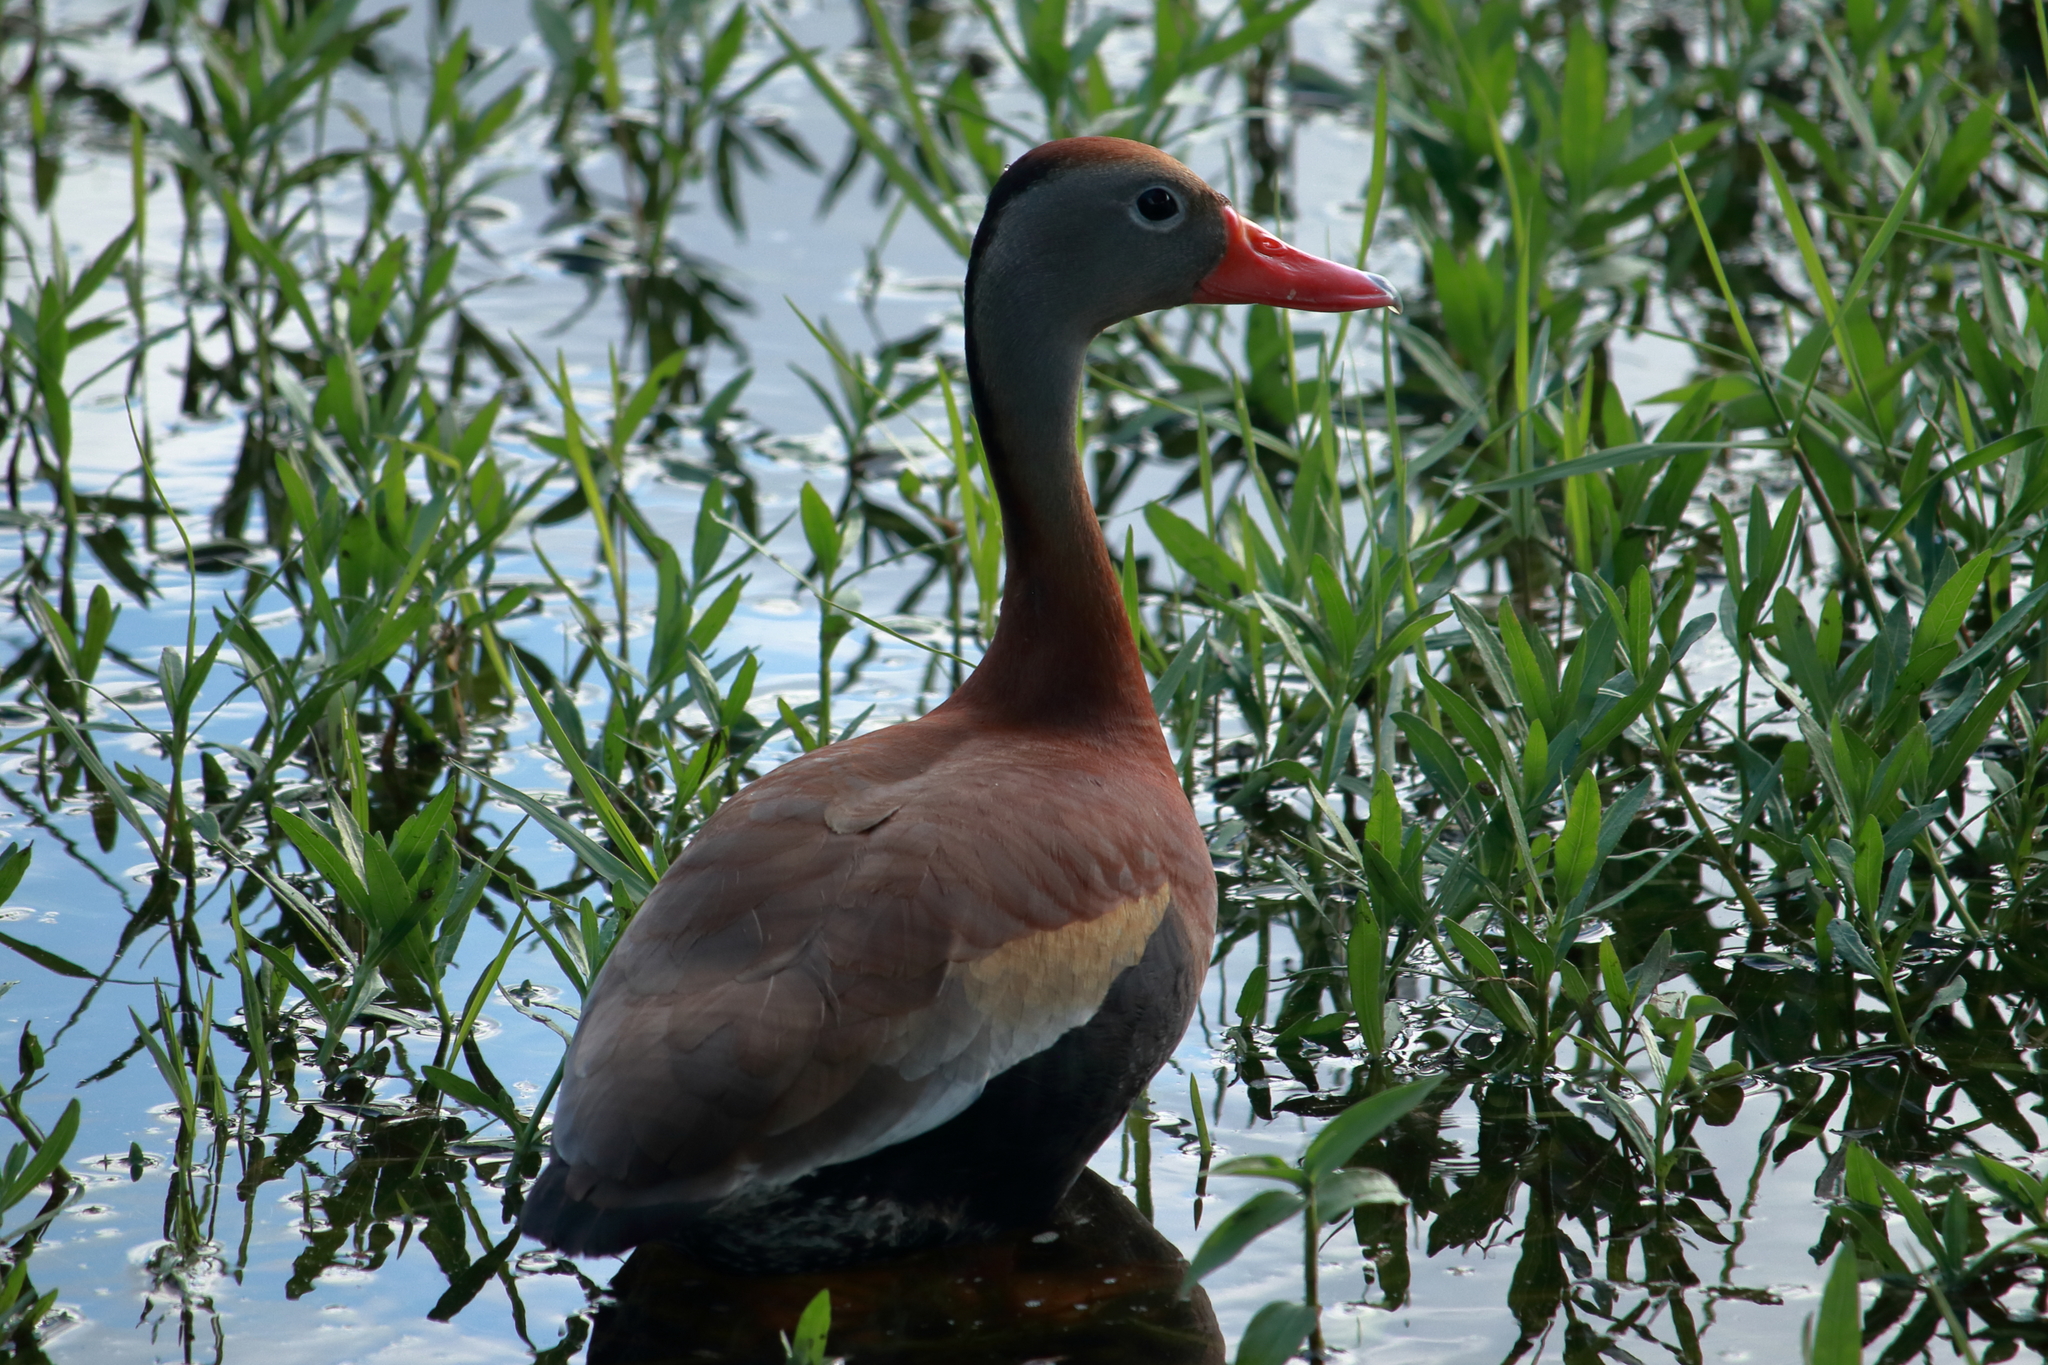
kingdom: Animalia
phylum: Chordata
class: Aves
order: Anseriformes
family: Anatidae
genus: Dendrocygna
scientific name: Dendrocygna autumnalis
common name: Black-bellied whistling duck
